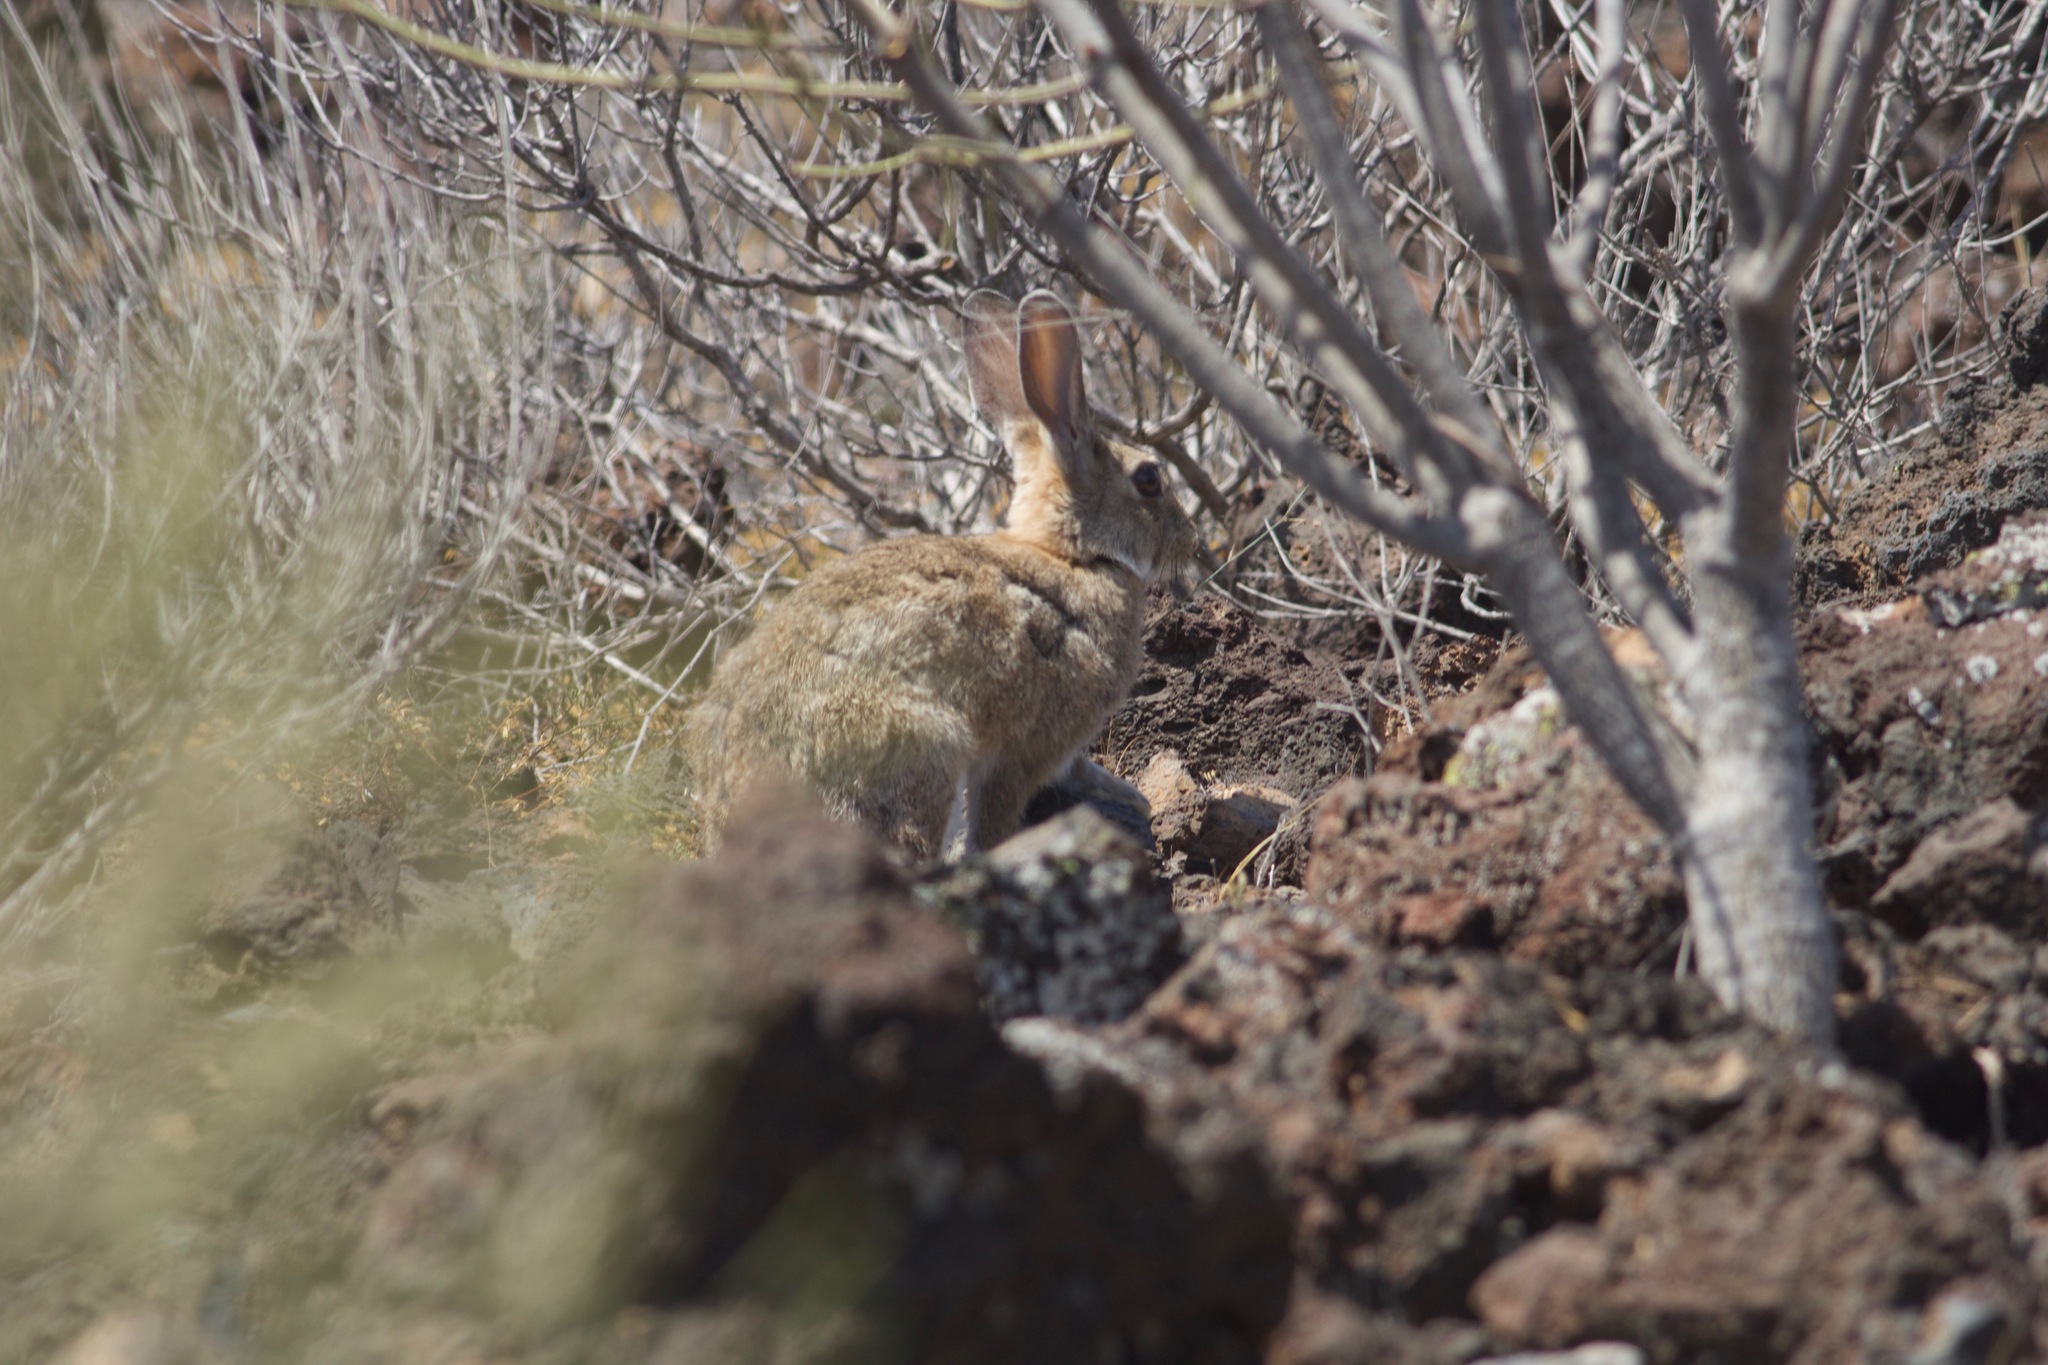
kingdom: Animalia
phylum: Chordata
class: Mammalia
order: Lagomorpha
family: Leporidae
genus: Oryctolagus
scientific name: Oryctolagus cuniculus
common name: European rabbit
